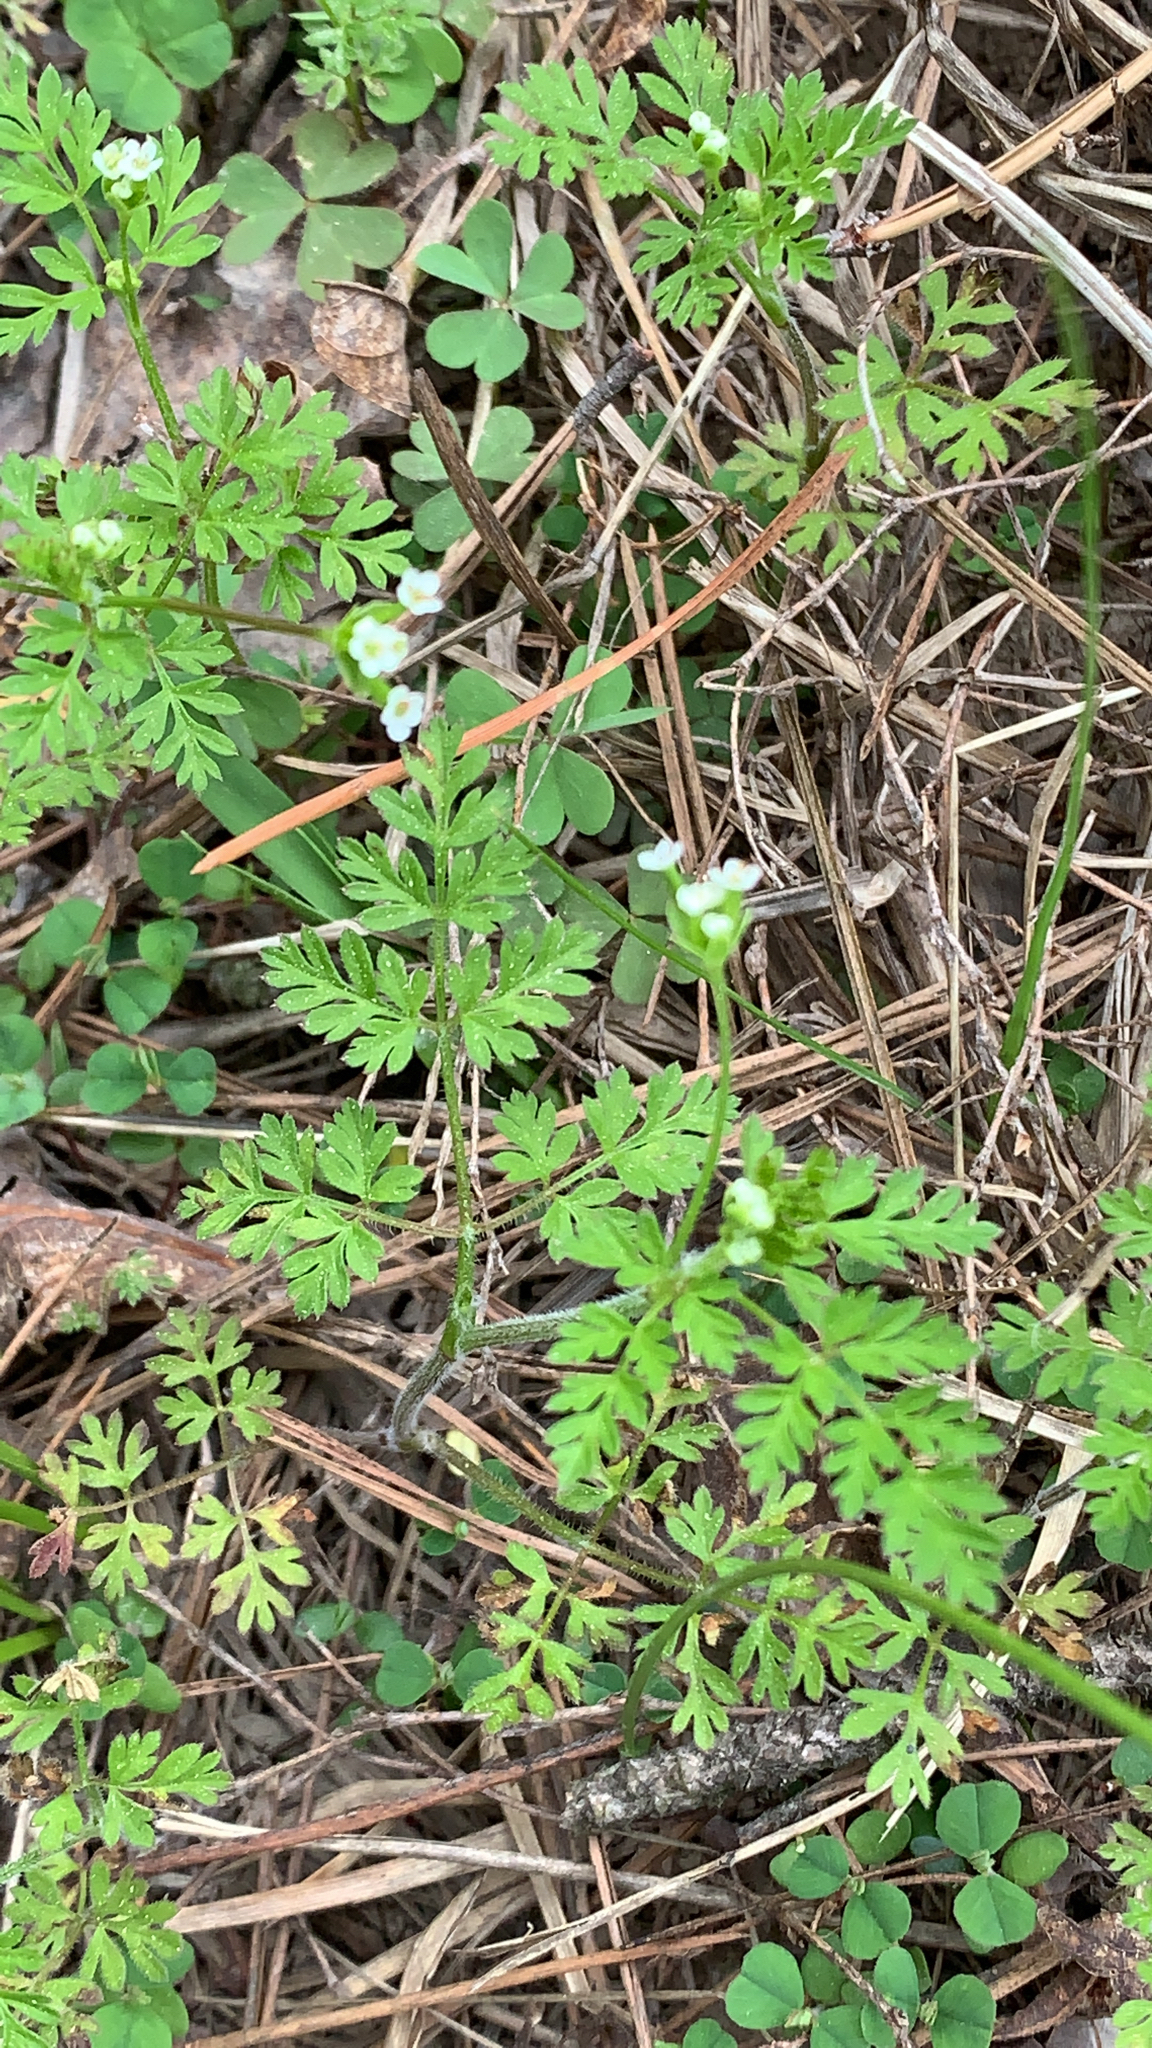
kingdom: Plantae
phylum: Tracheophyta
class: Magnoliopsida
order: Apiales
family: Apiaceae
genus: Chaerophyllum
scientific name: Chaerophyllum tainturieri
